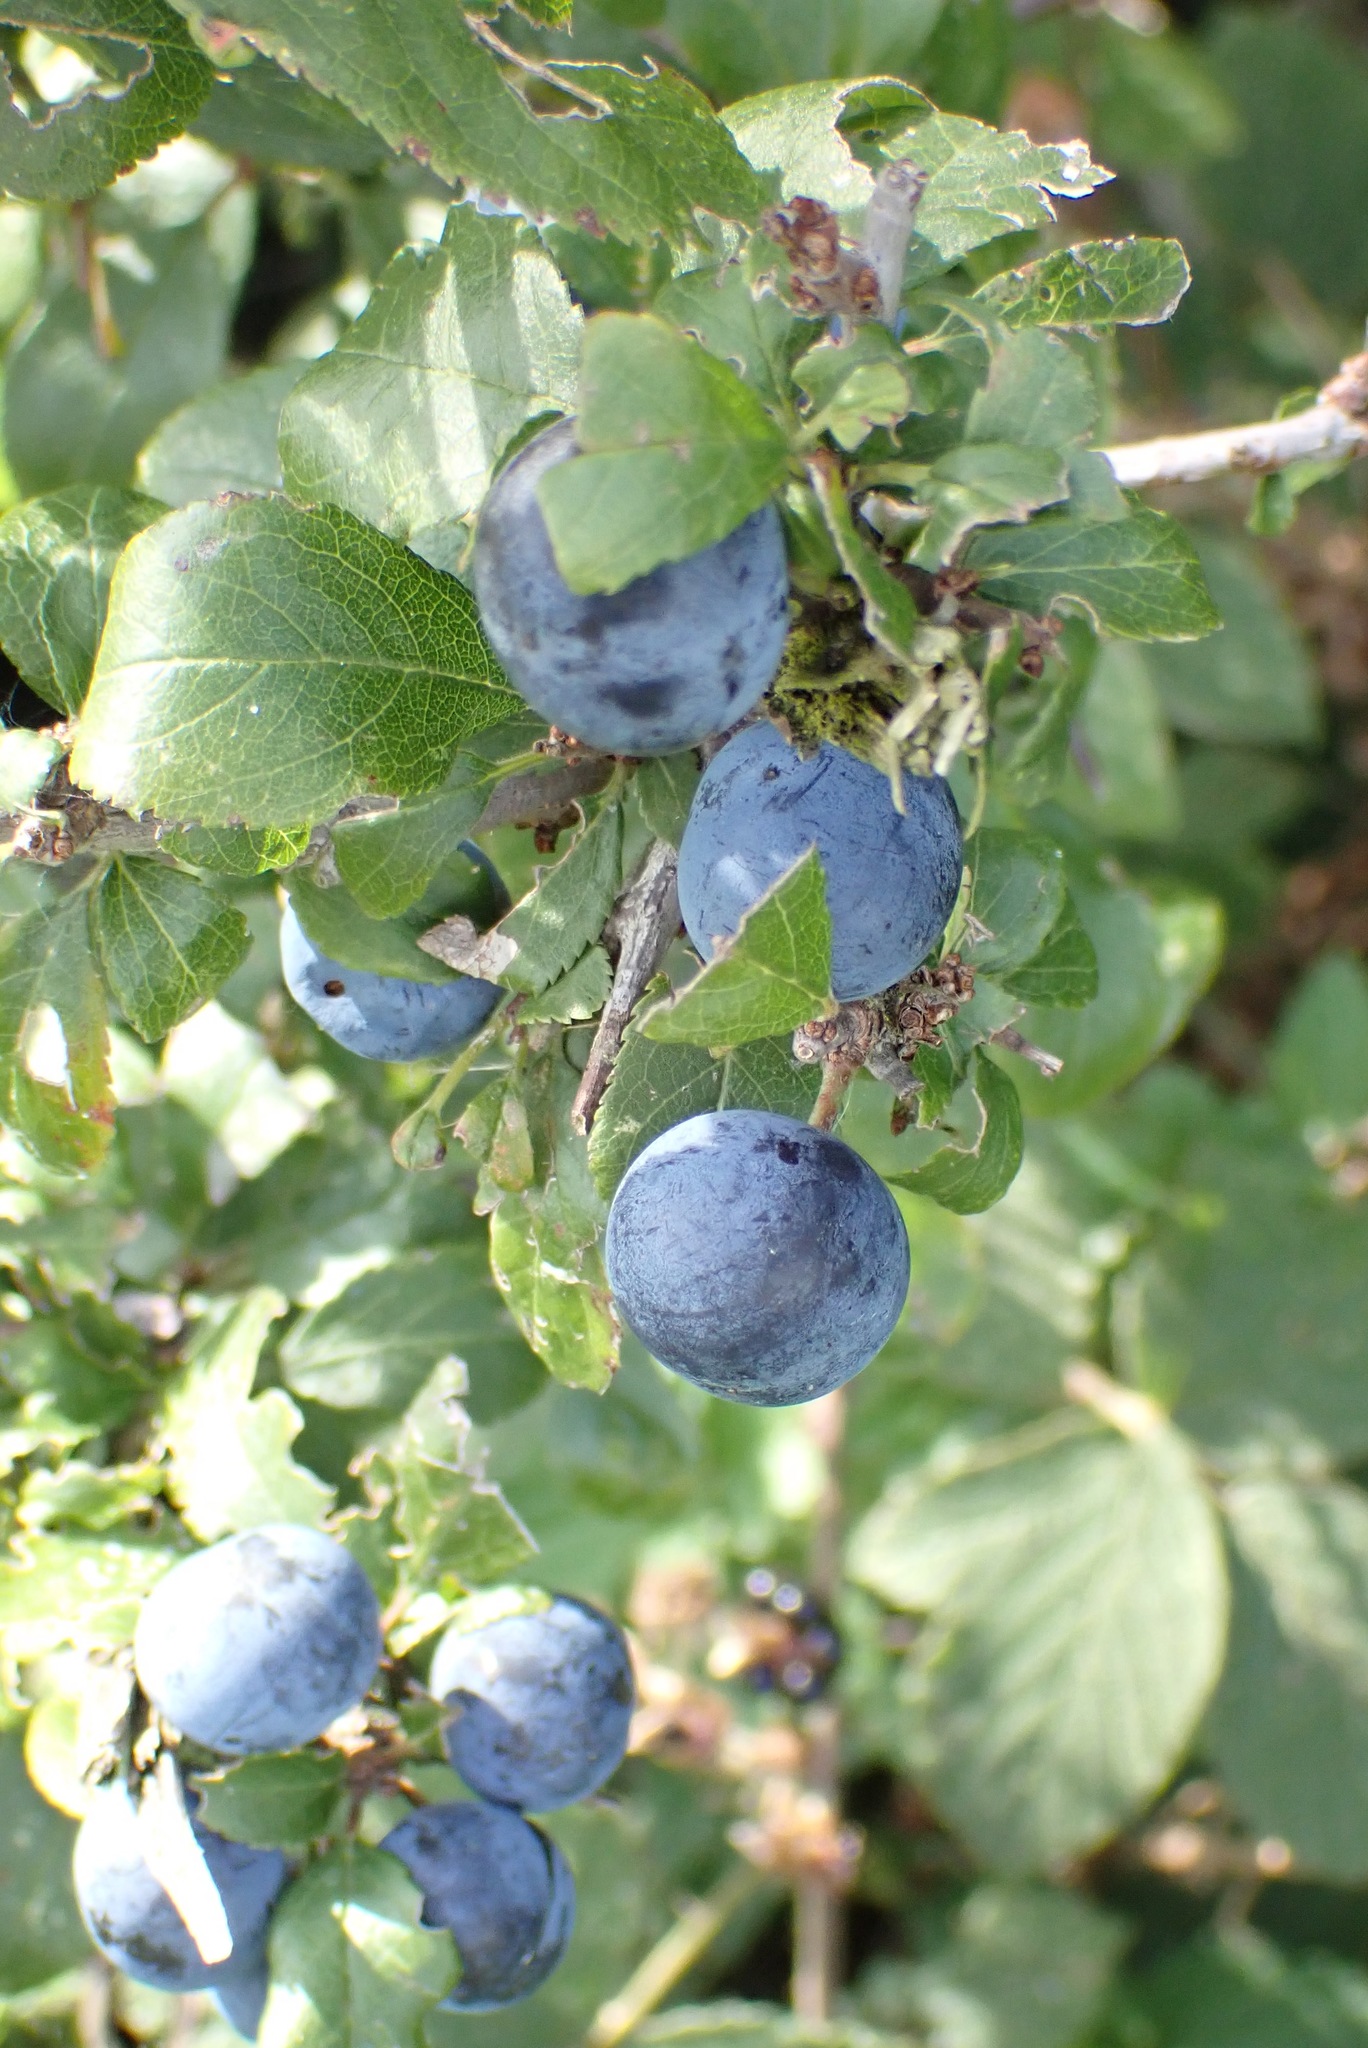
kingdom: Plantae
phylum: Tracheophyta
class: Magnoliopsida
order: Rosales
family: Rosaceae
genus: Prunus
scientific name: Prunus spinosa
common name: Blackthorn
